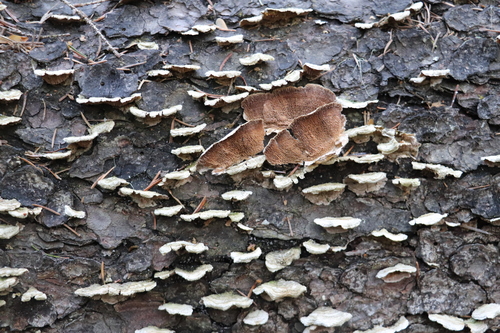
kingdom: Fungi
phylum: Basidiomycota
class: Agaricomycetes
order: Hymenochaetales
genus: Trichaptum
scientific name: Trichaptum fuscoviolaceum
